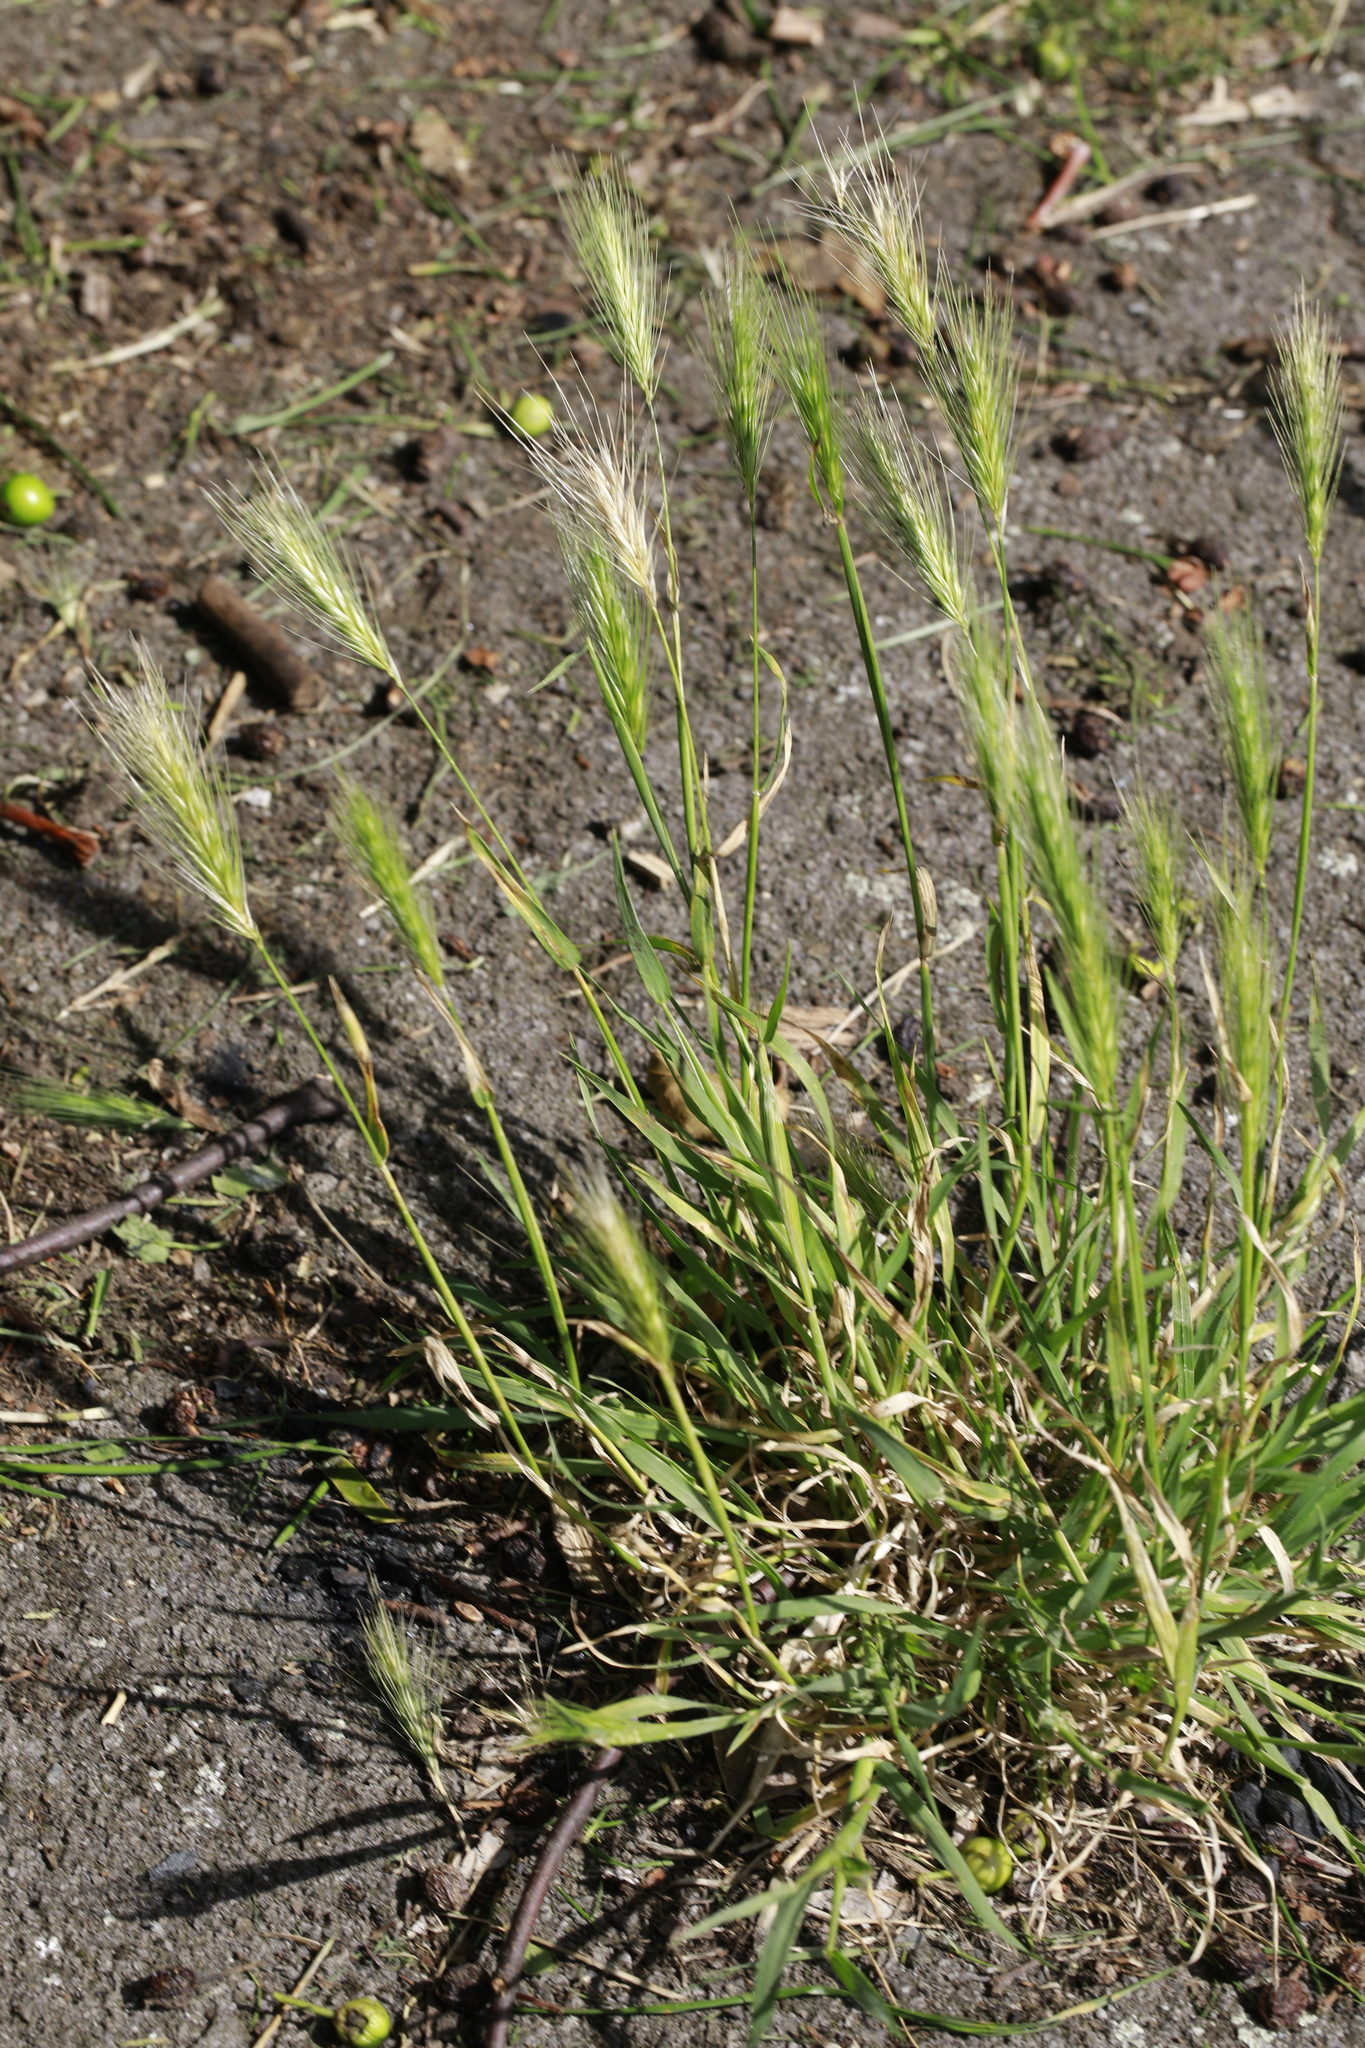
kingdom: Plantae
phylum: Tracheophyta
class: Liliopsida
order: Poales
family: Poaceae
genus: Hordeum
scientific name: Hordeum murinum
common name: Wall barley
